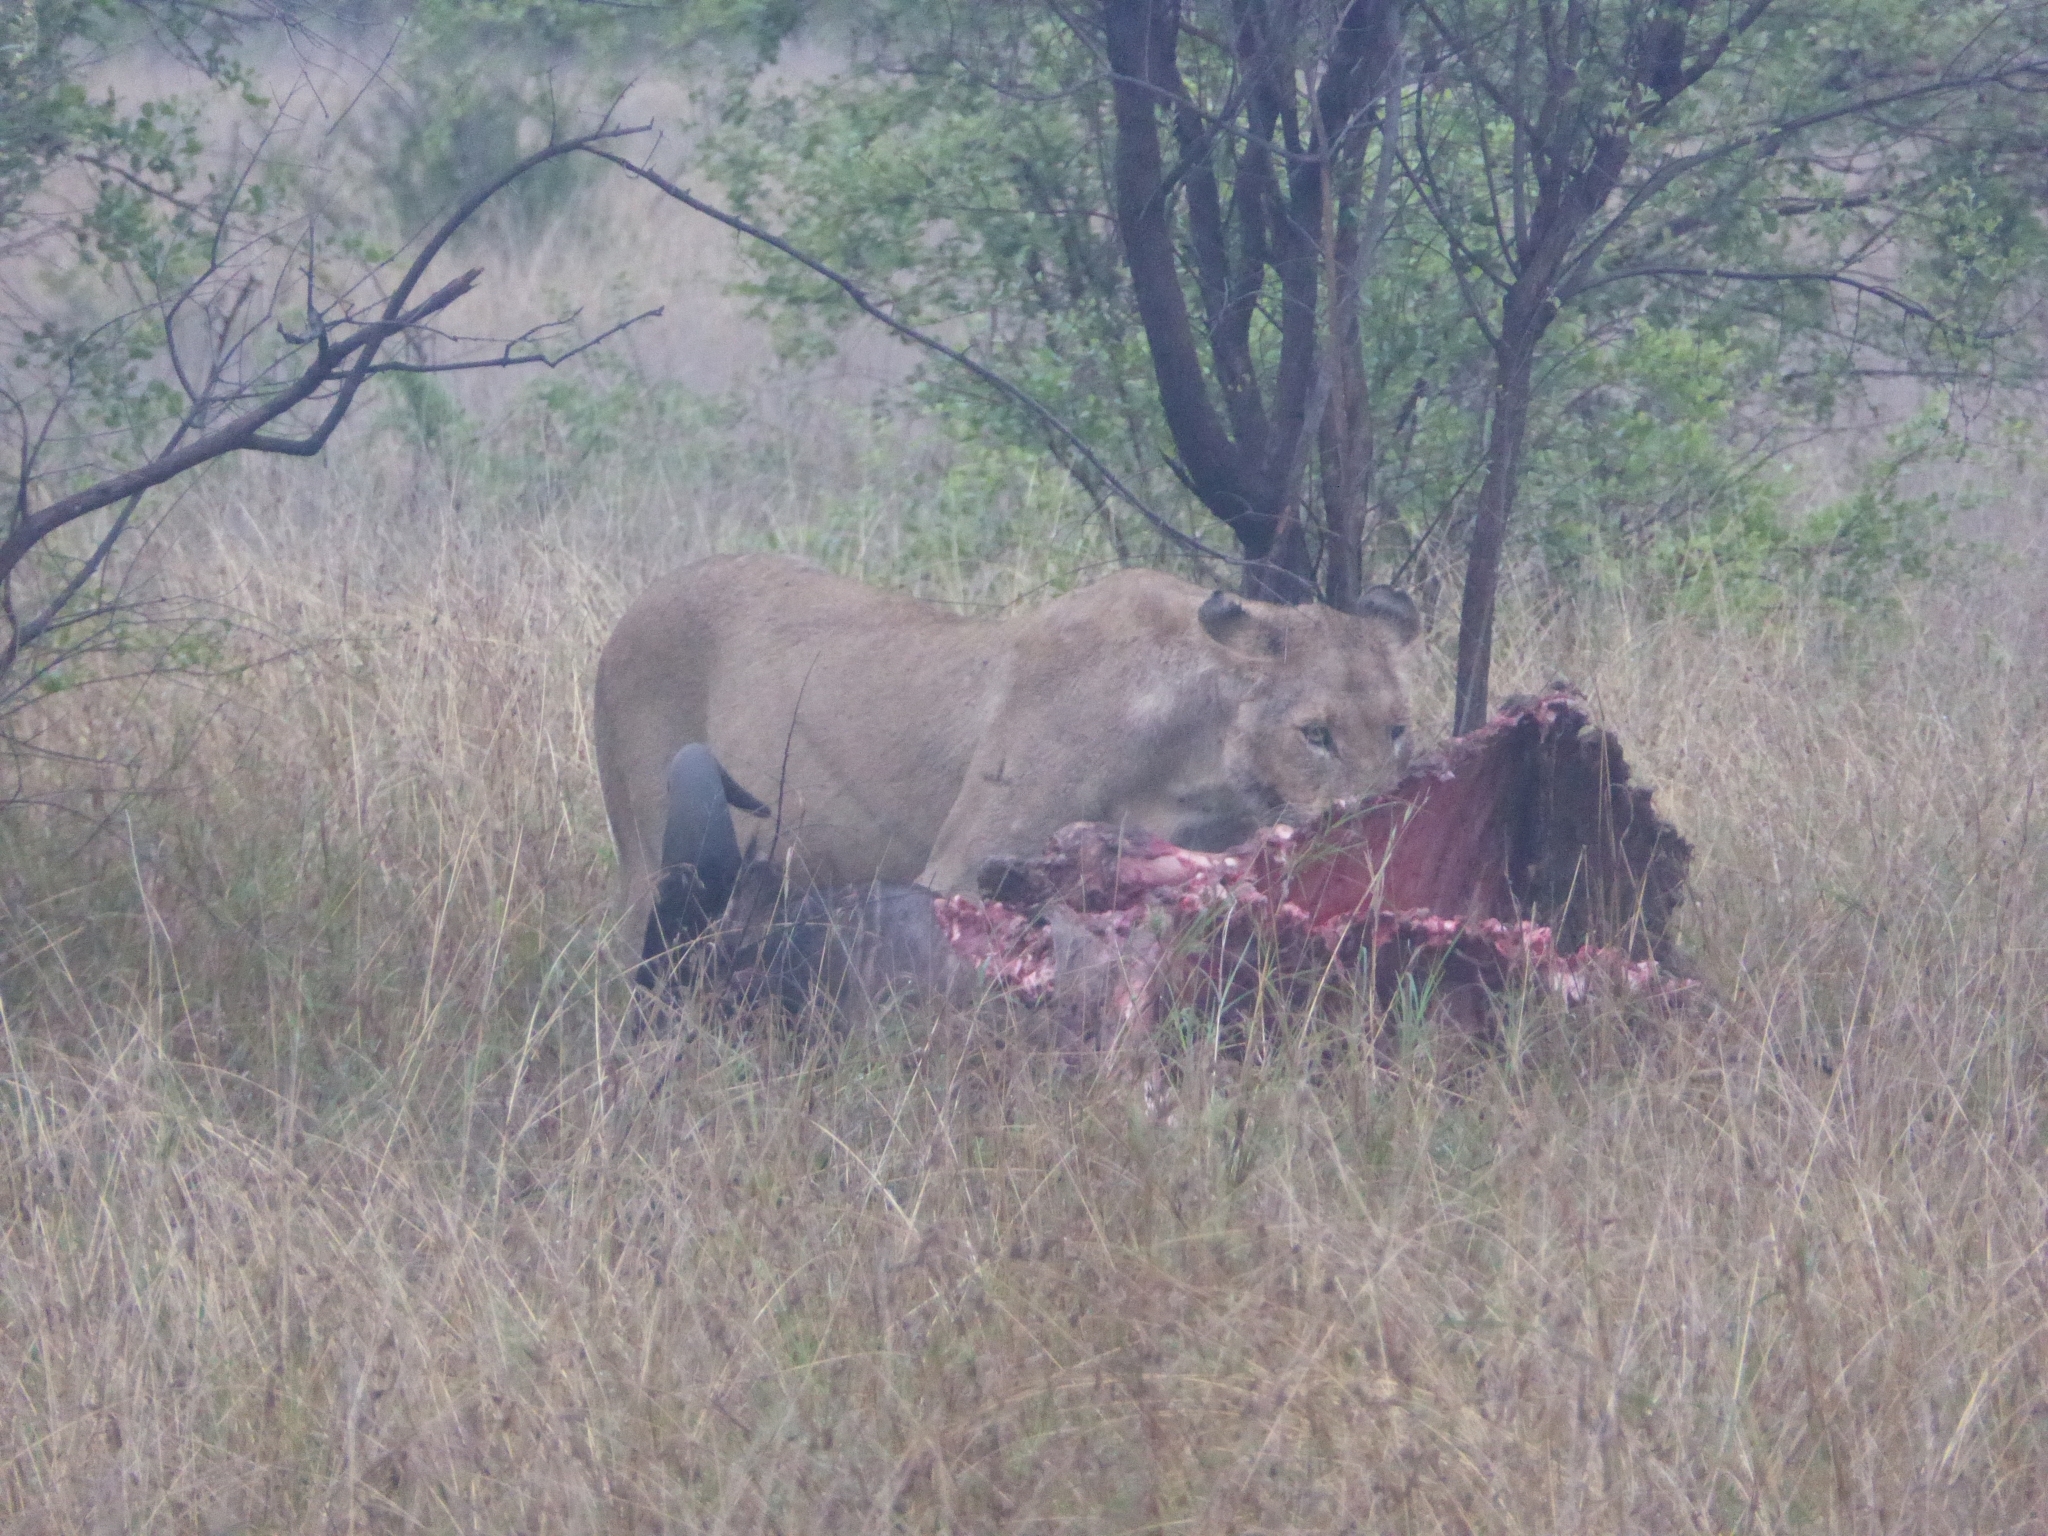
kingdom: Animalia
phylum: Chordata
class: Mammalia
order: Carnivora
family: Felidae
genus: Panthera
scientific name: Panthera leo
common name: Lion
